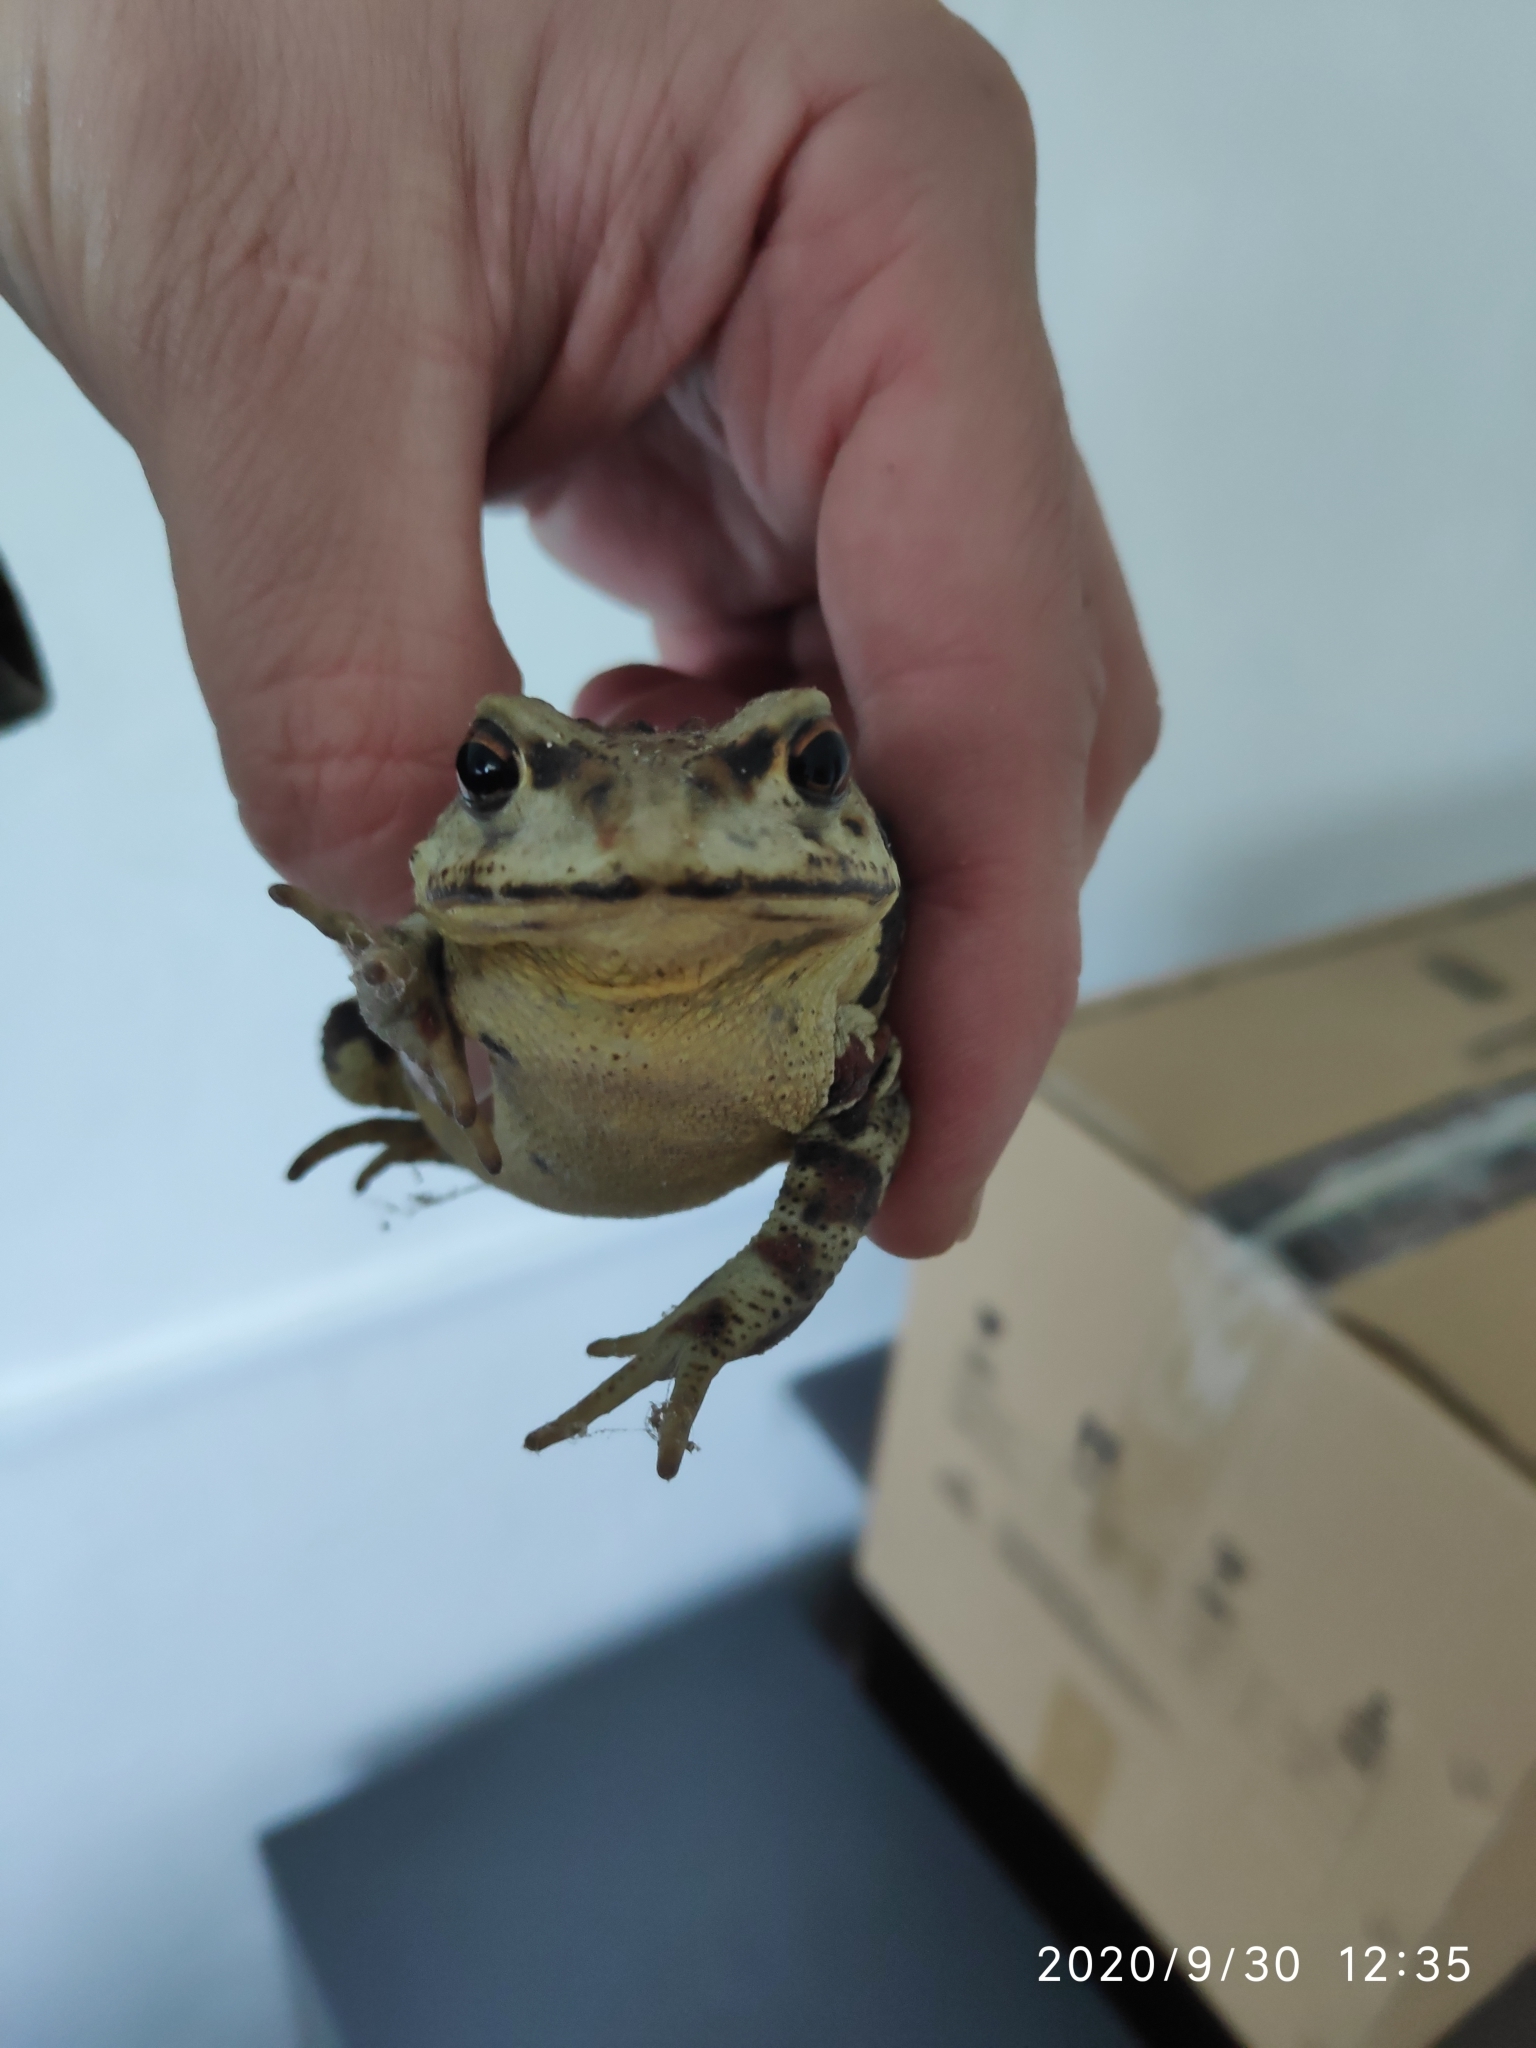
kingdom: Animalia
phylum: Chordata
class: Amphibia
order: Anura
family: Bufonidae
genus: Bufo
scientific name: Bufo gargarizans
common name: Asiatic toad
